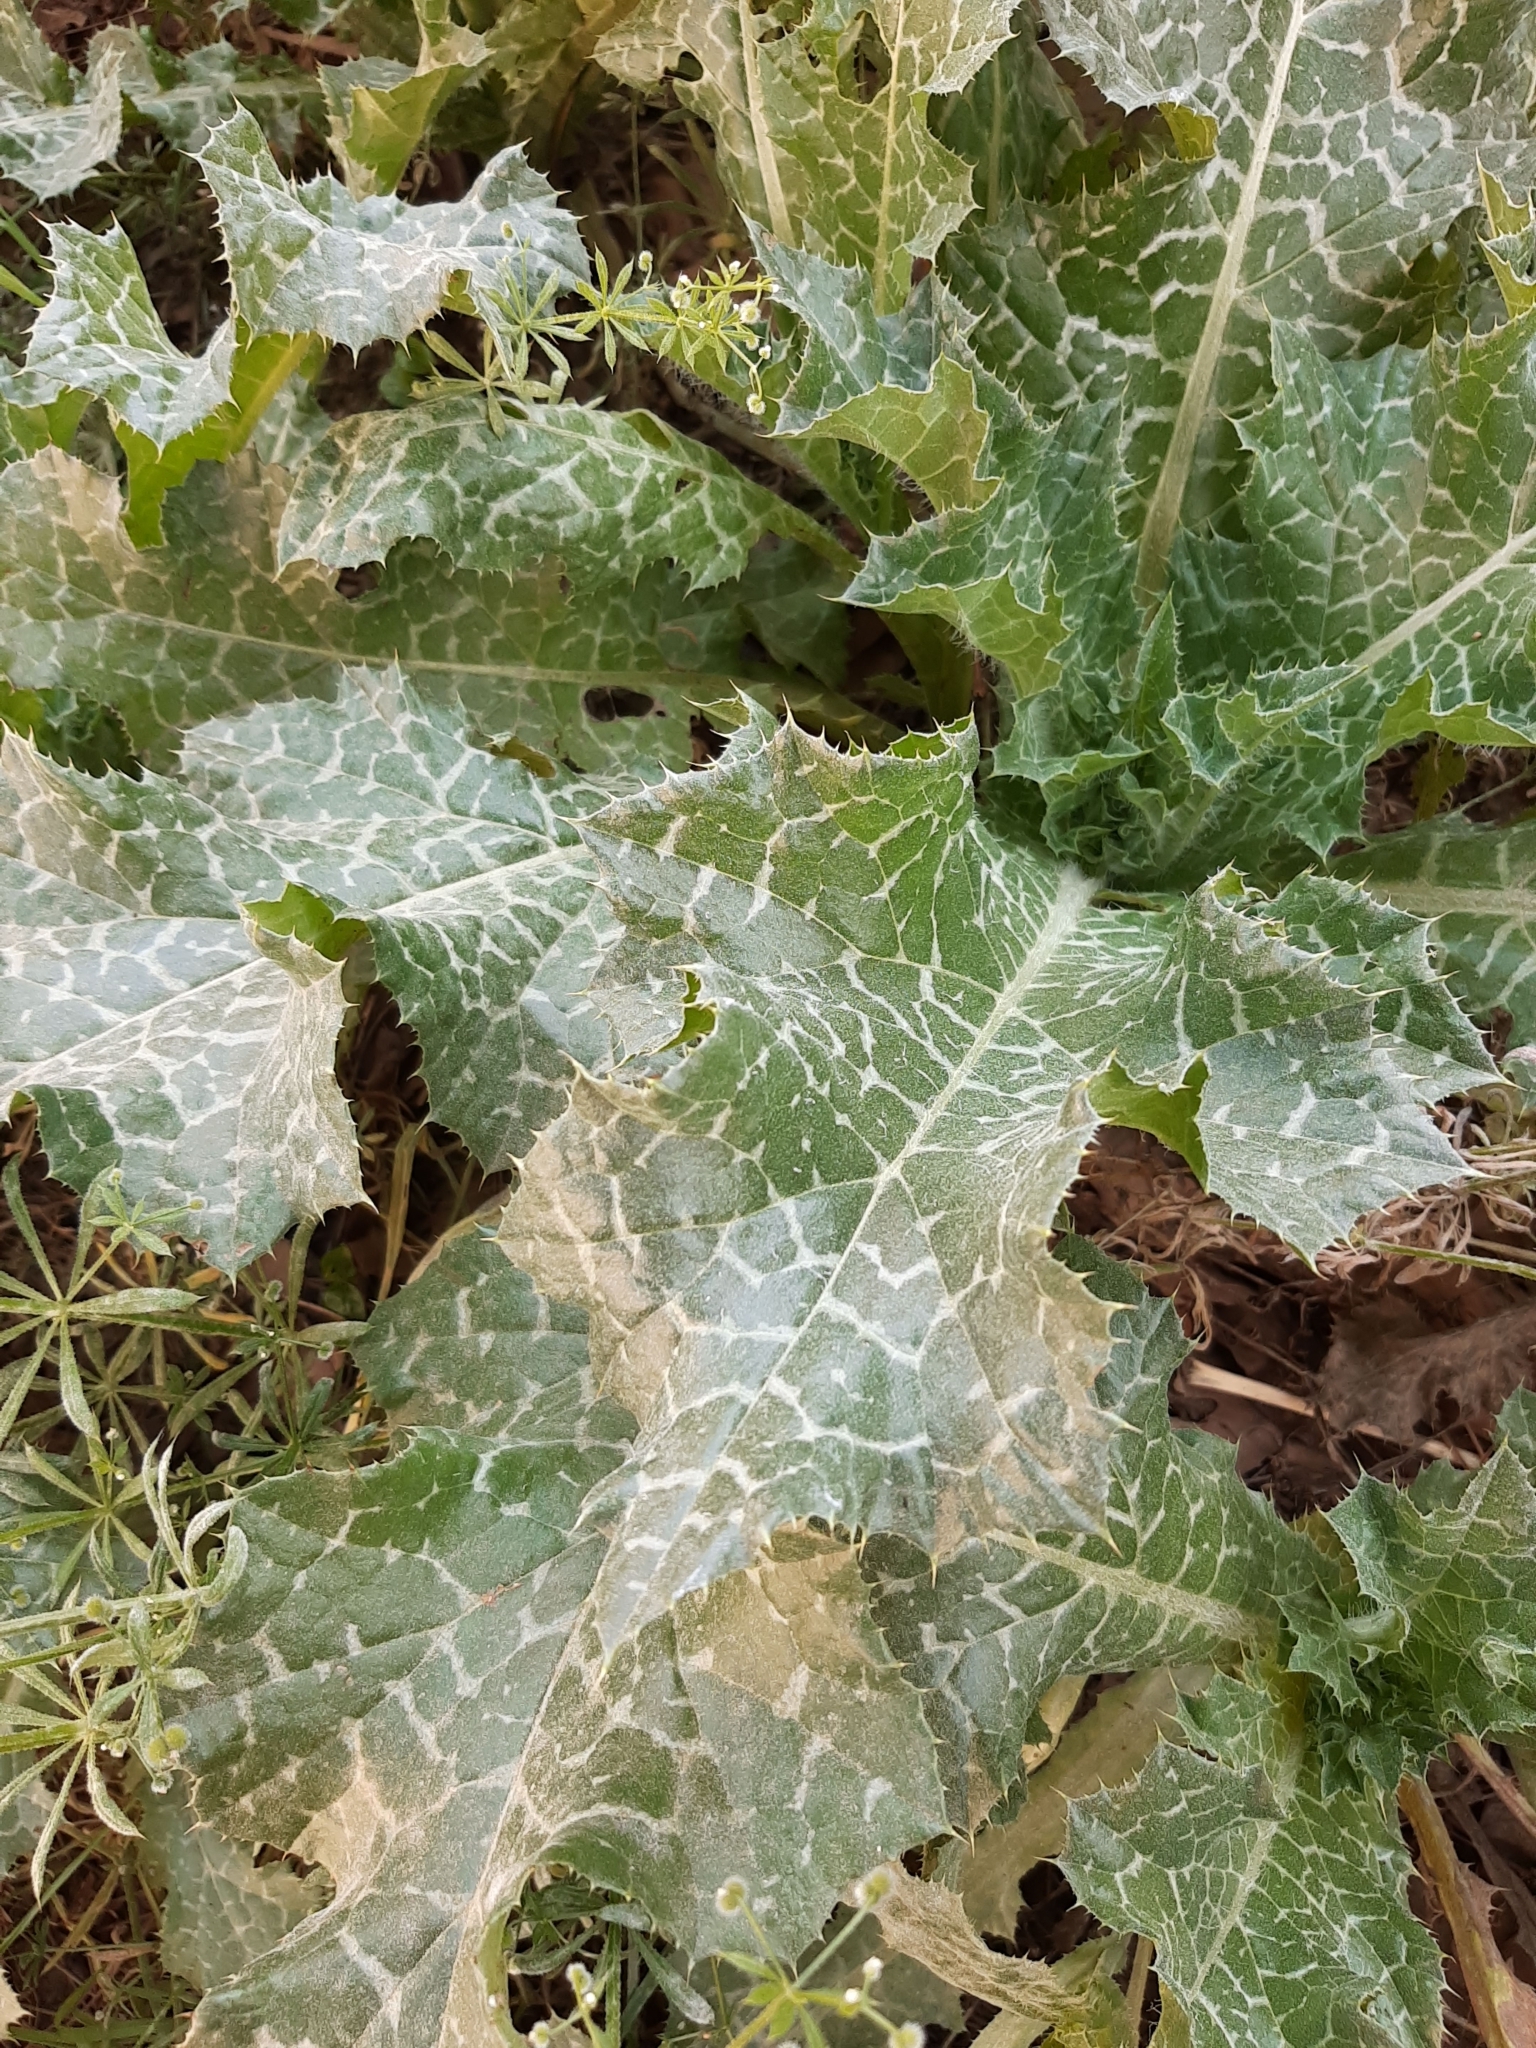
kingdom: Plantae
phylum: Tracheophyta
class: Magnoliopsida
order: Asterales
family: Asteraceae
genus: Silybum
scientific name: Silybum marianum
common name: Milk thistle
